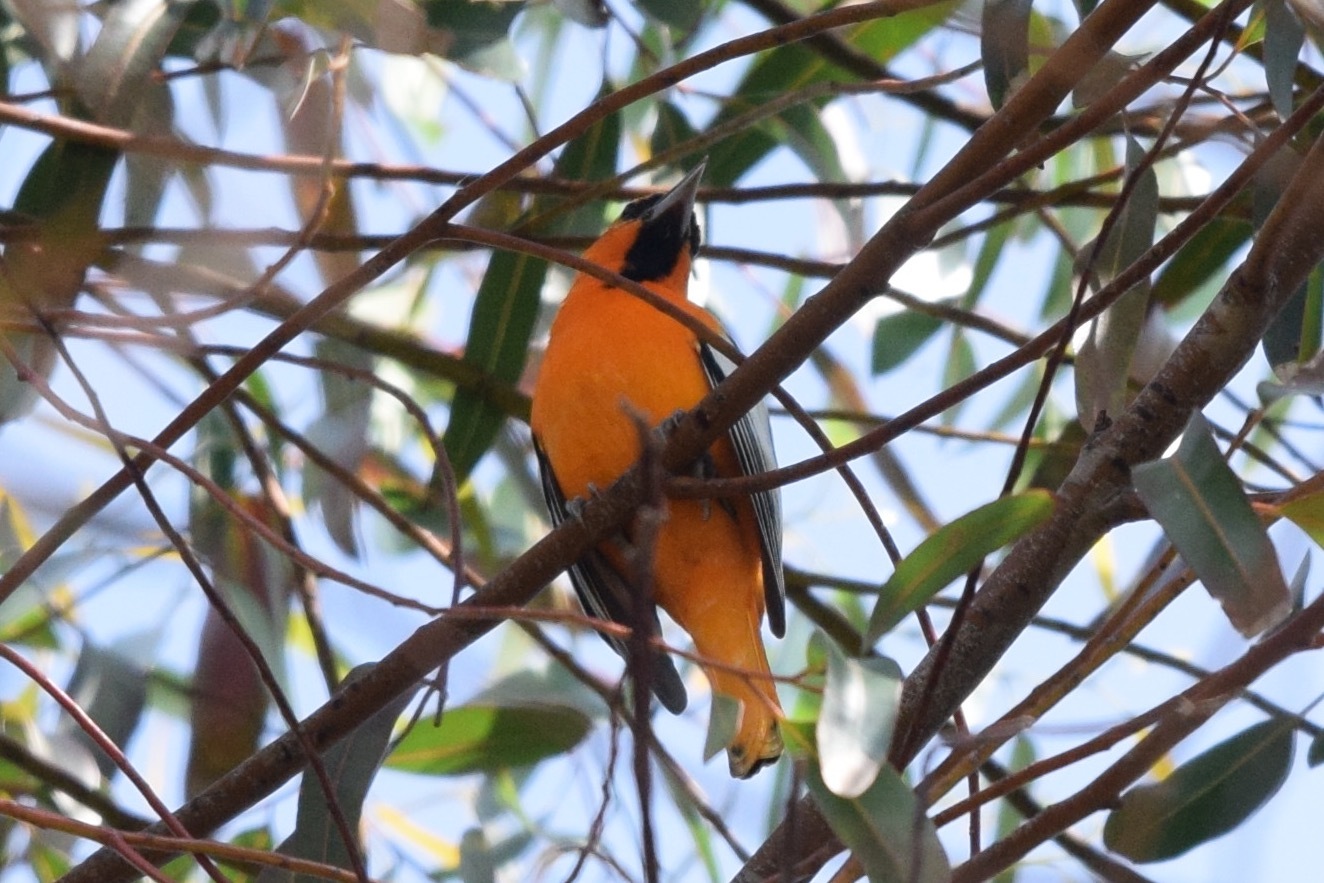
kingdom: Animalia
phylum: Chordata
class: Aves
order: Passeriformes
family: Icteridae
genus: Icterus
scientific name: Icterus bullockii
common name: Bullock's oriole
